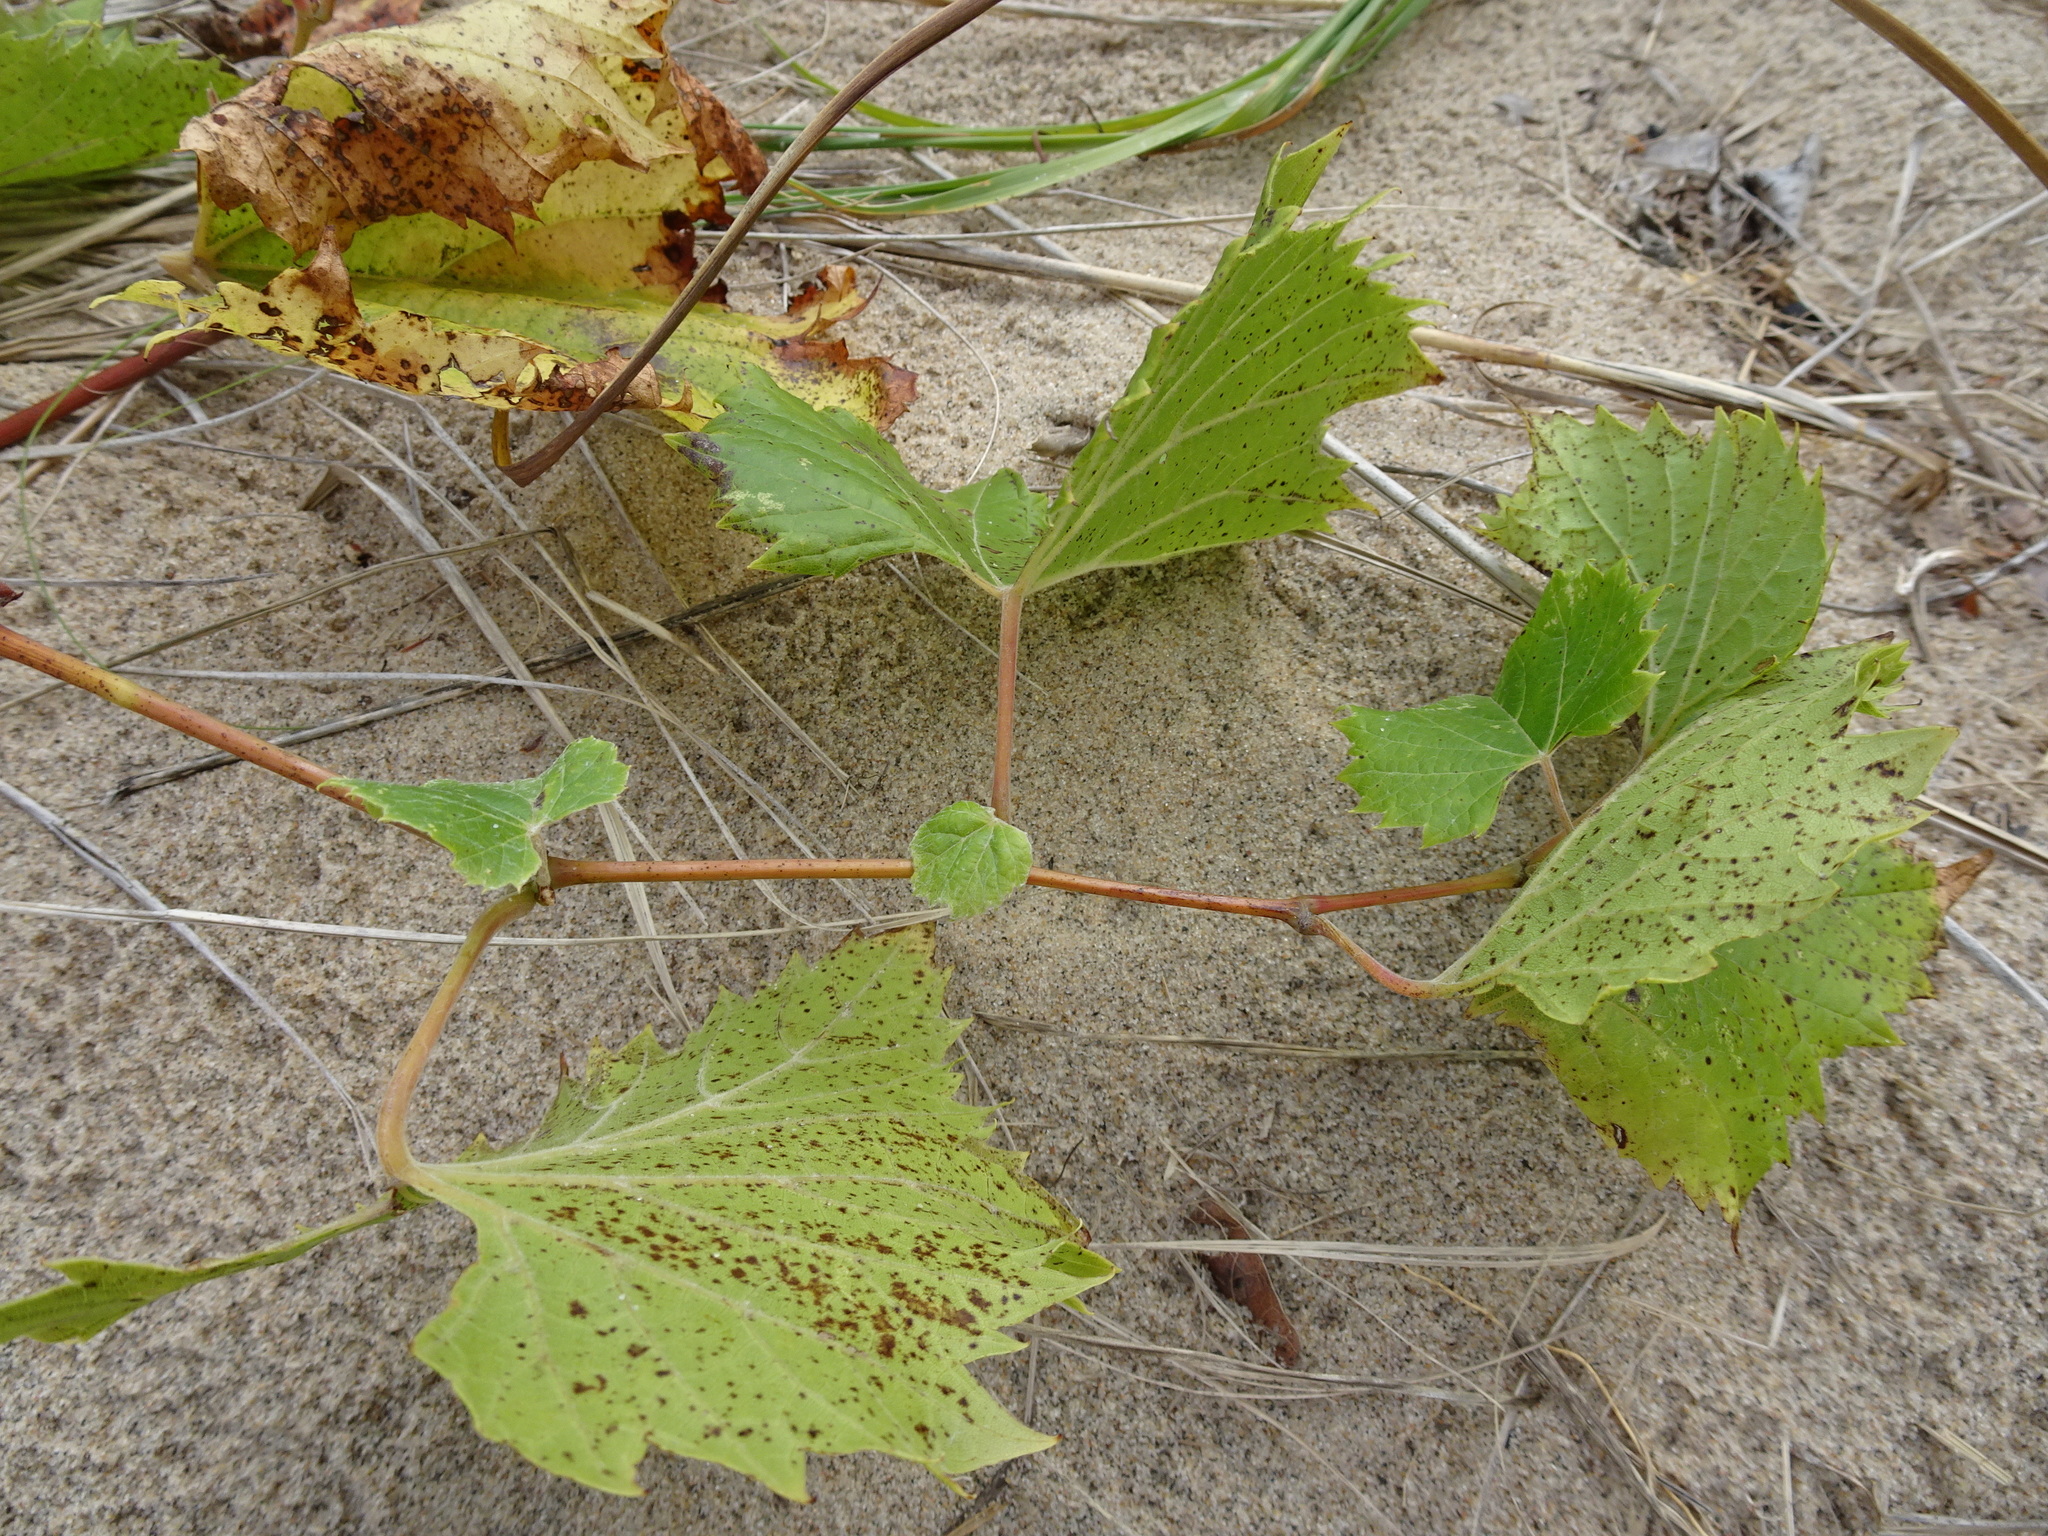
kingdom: Plantae
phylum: Tracheophyta
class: Magnoliopsida
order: Vitales
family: Vitaceae
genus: Vitis
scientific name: Vitis riparia
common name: Frost grape
